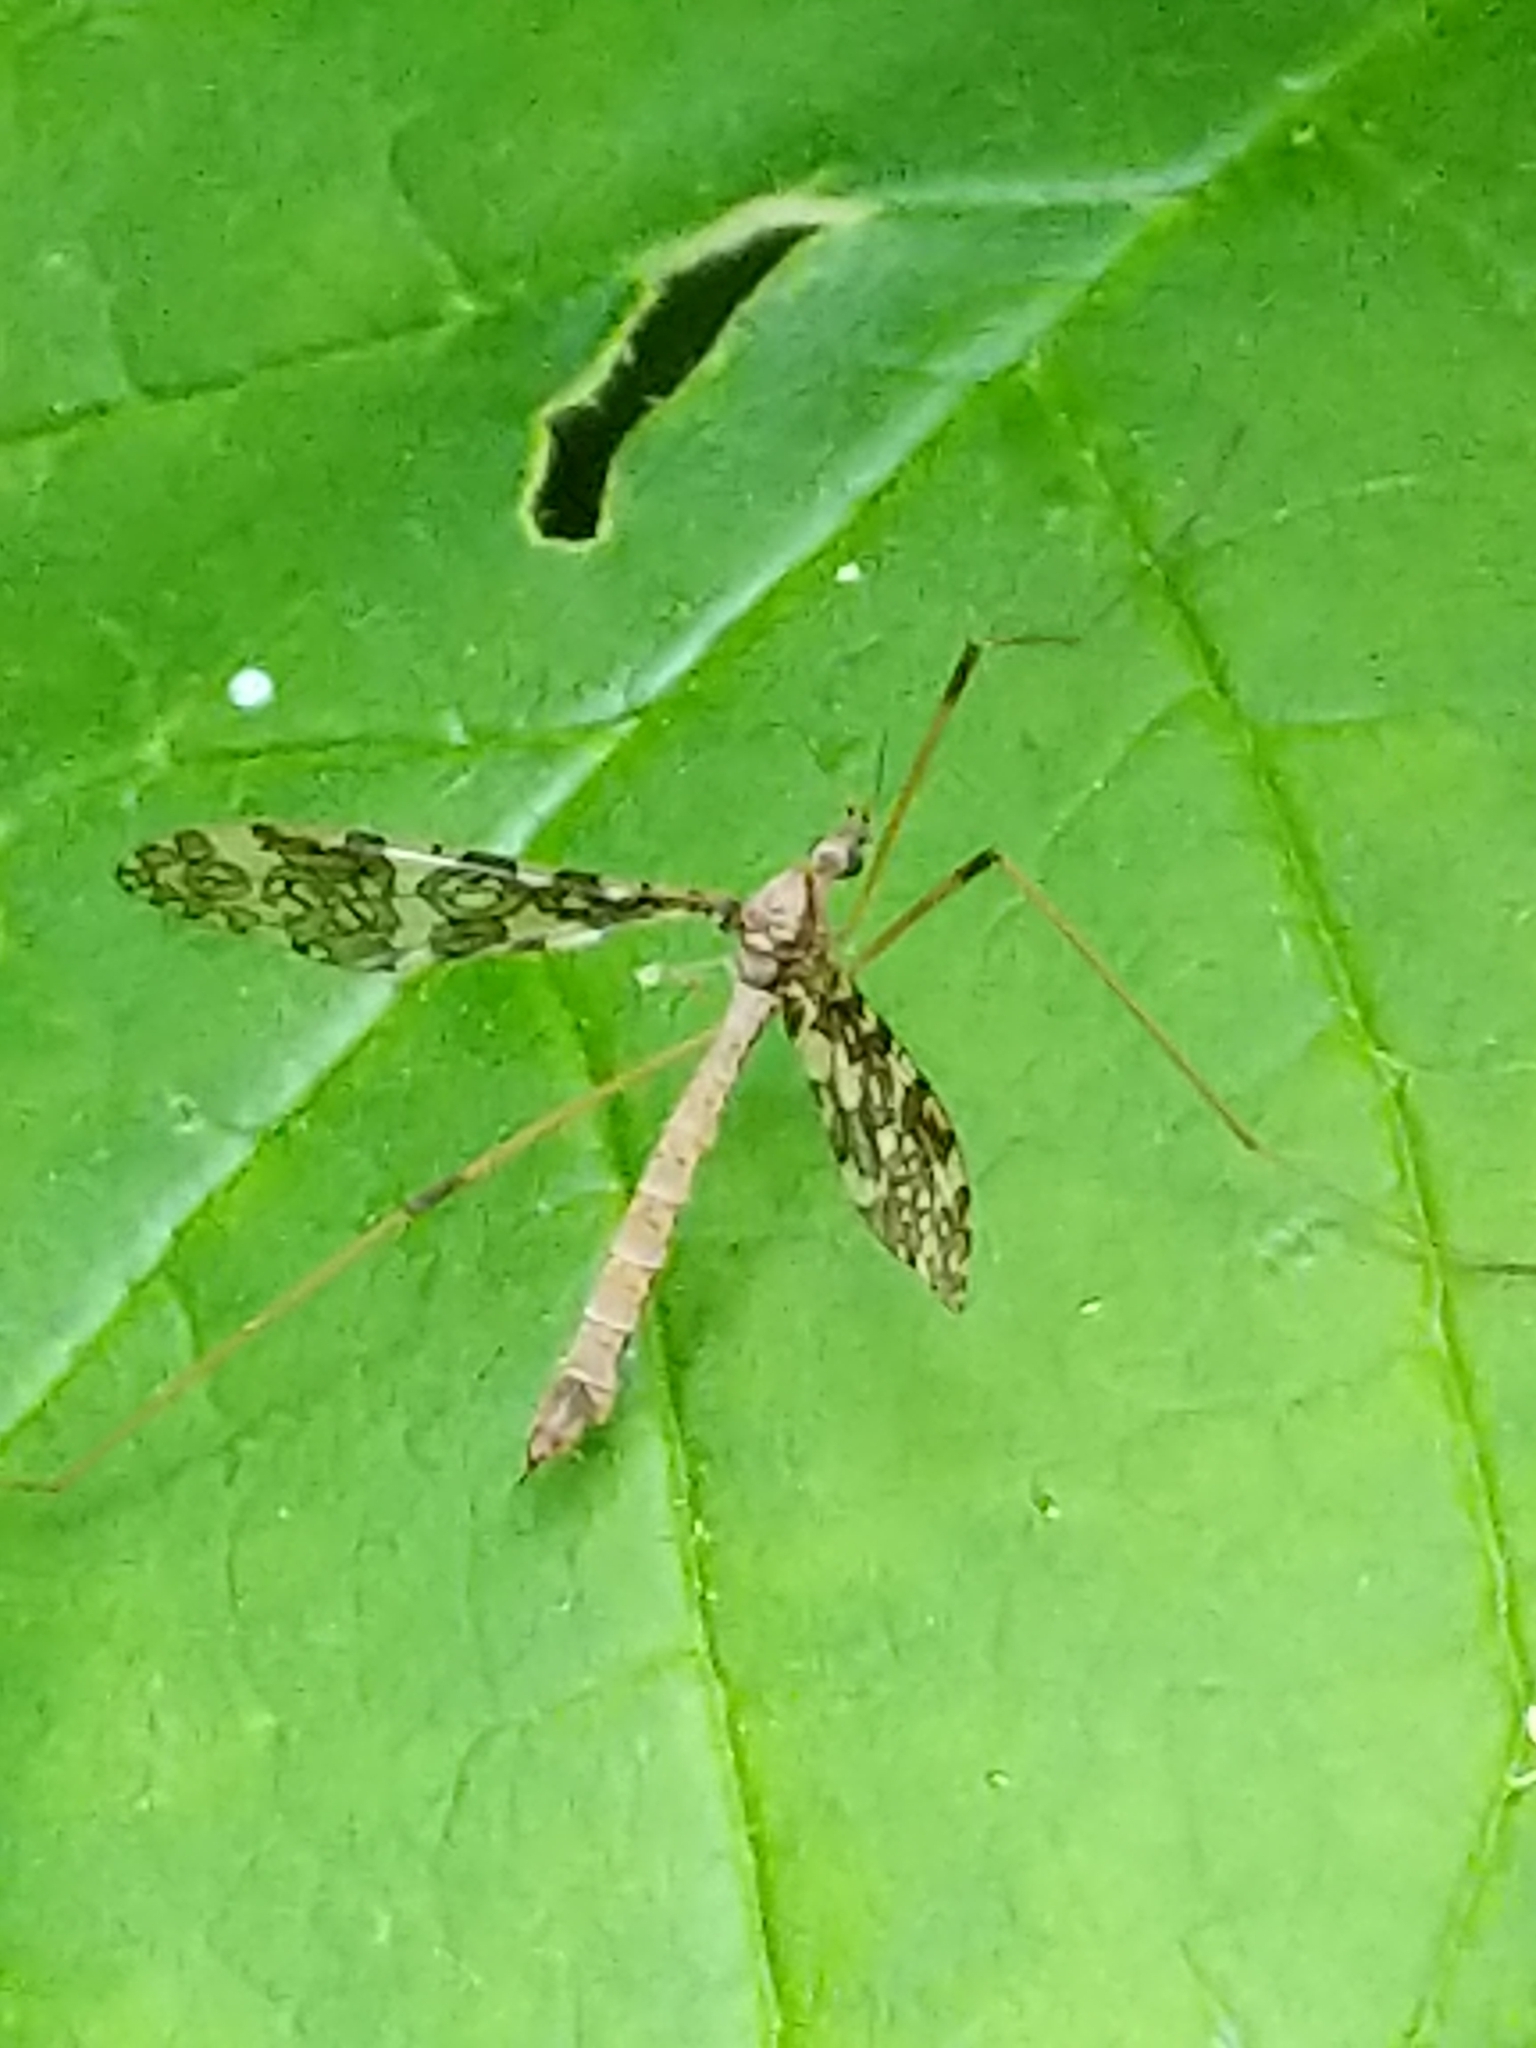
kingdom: Animalia
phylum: Arthropoda
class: Insecta
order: Diptera
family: Limoniidae
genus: Epiphragma
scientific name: Epiphragma fasciapenne
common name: Band-winged crane fly
